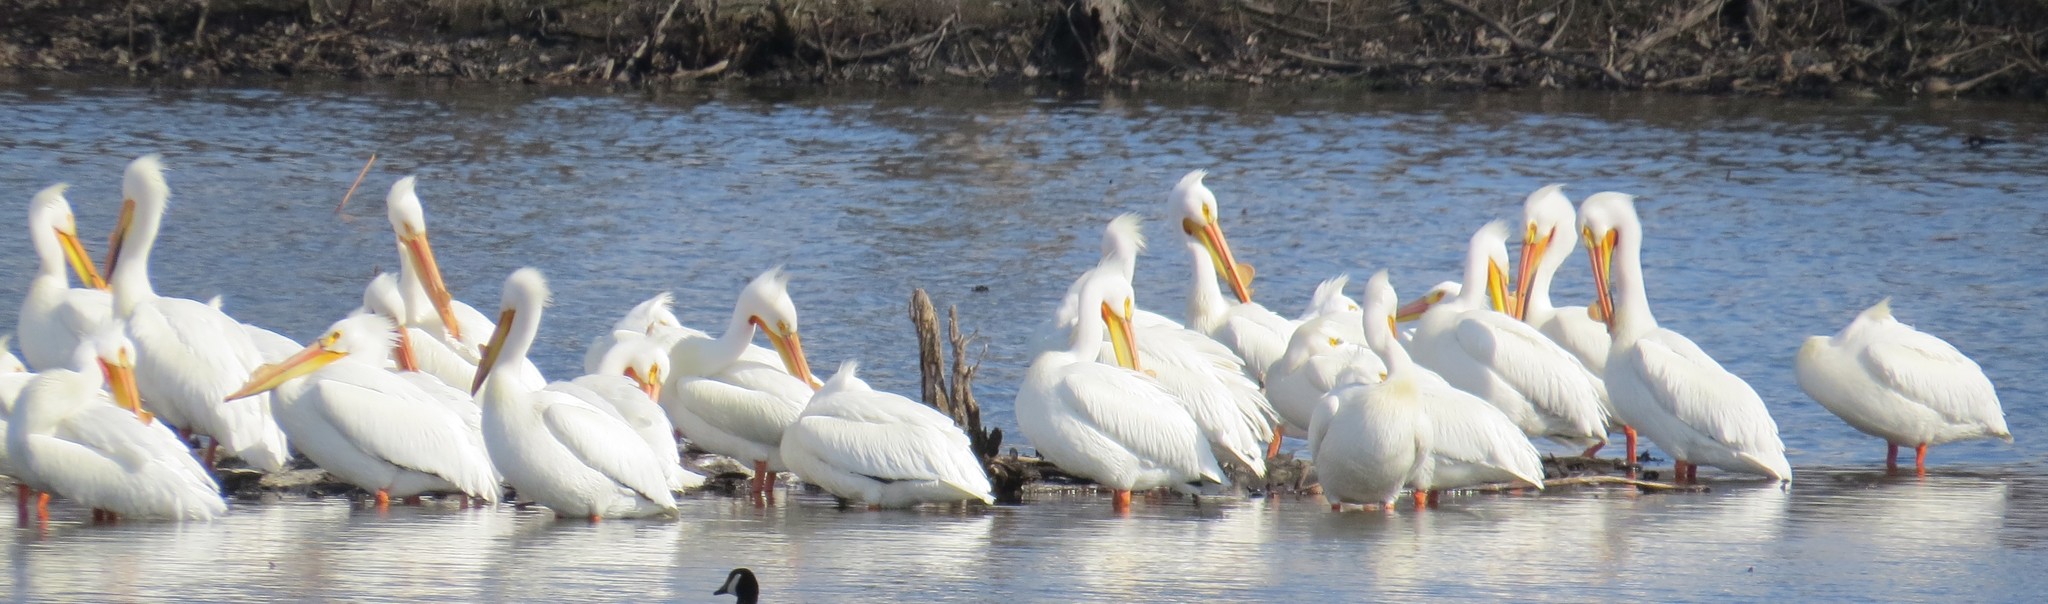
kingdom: Animalia
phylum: Chordata
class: Aves
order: Pelecaniformes
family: Pelecanidae
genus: Pelecanus
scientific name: Pelecanus erythrorhynchos
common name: American white pelican
